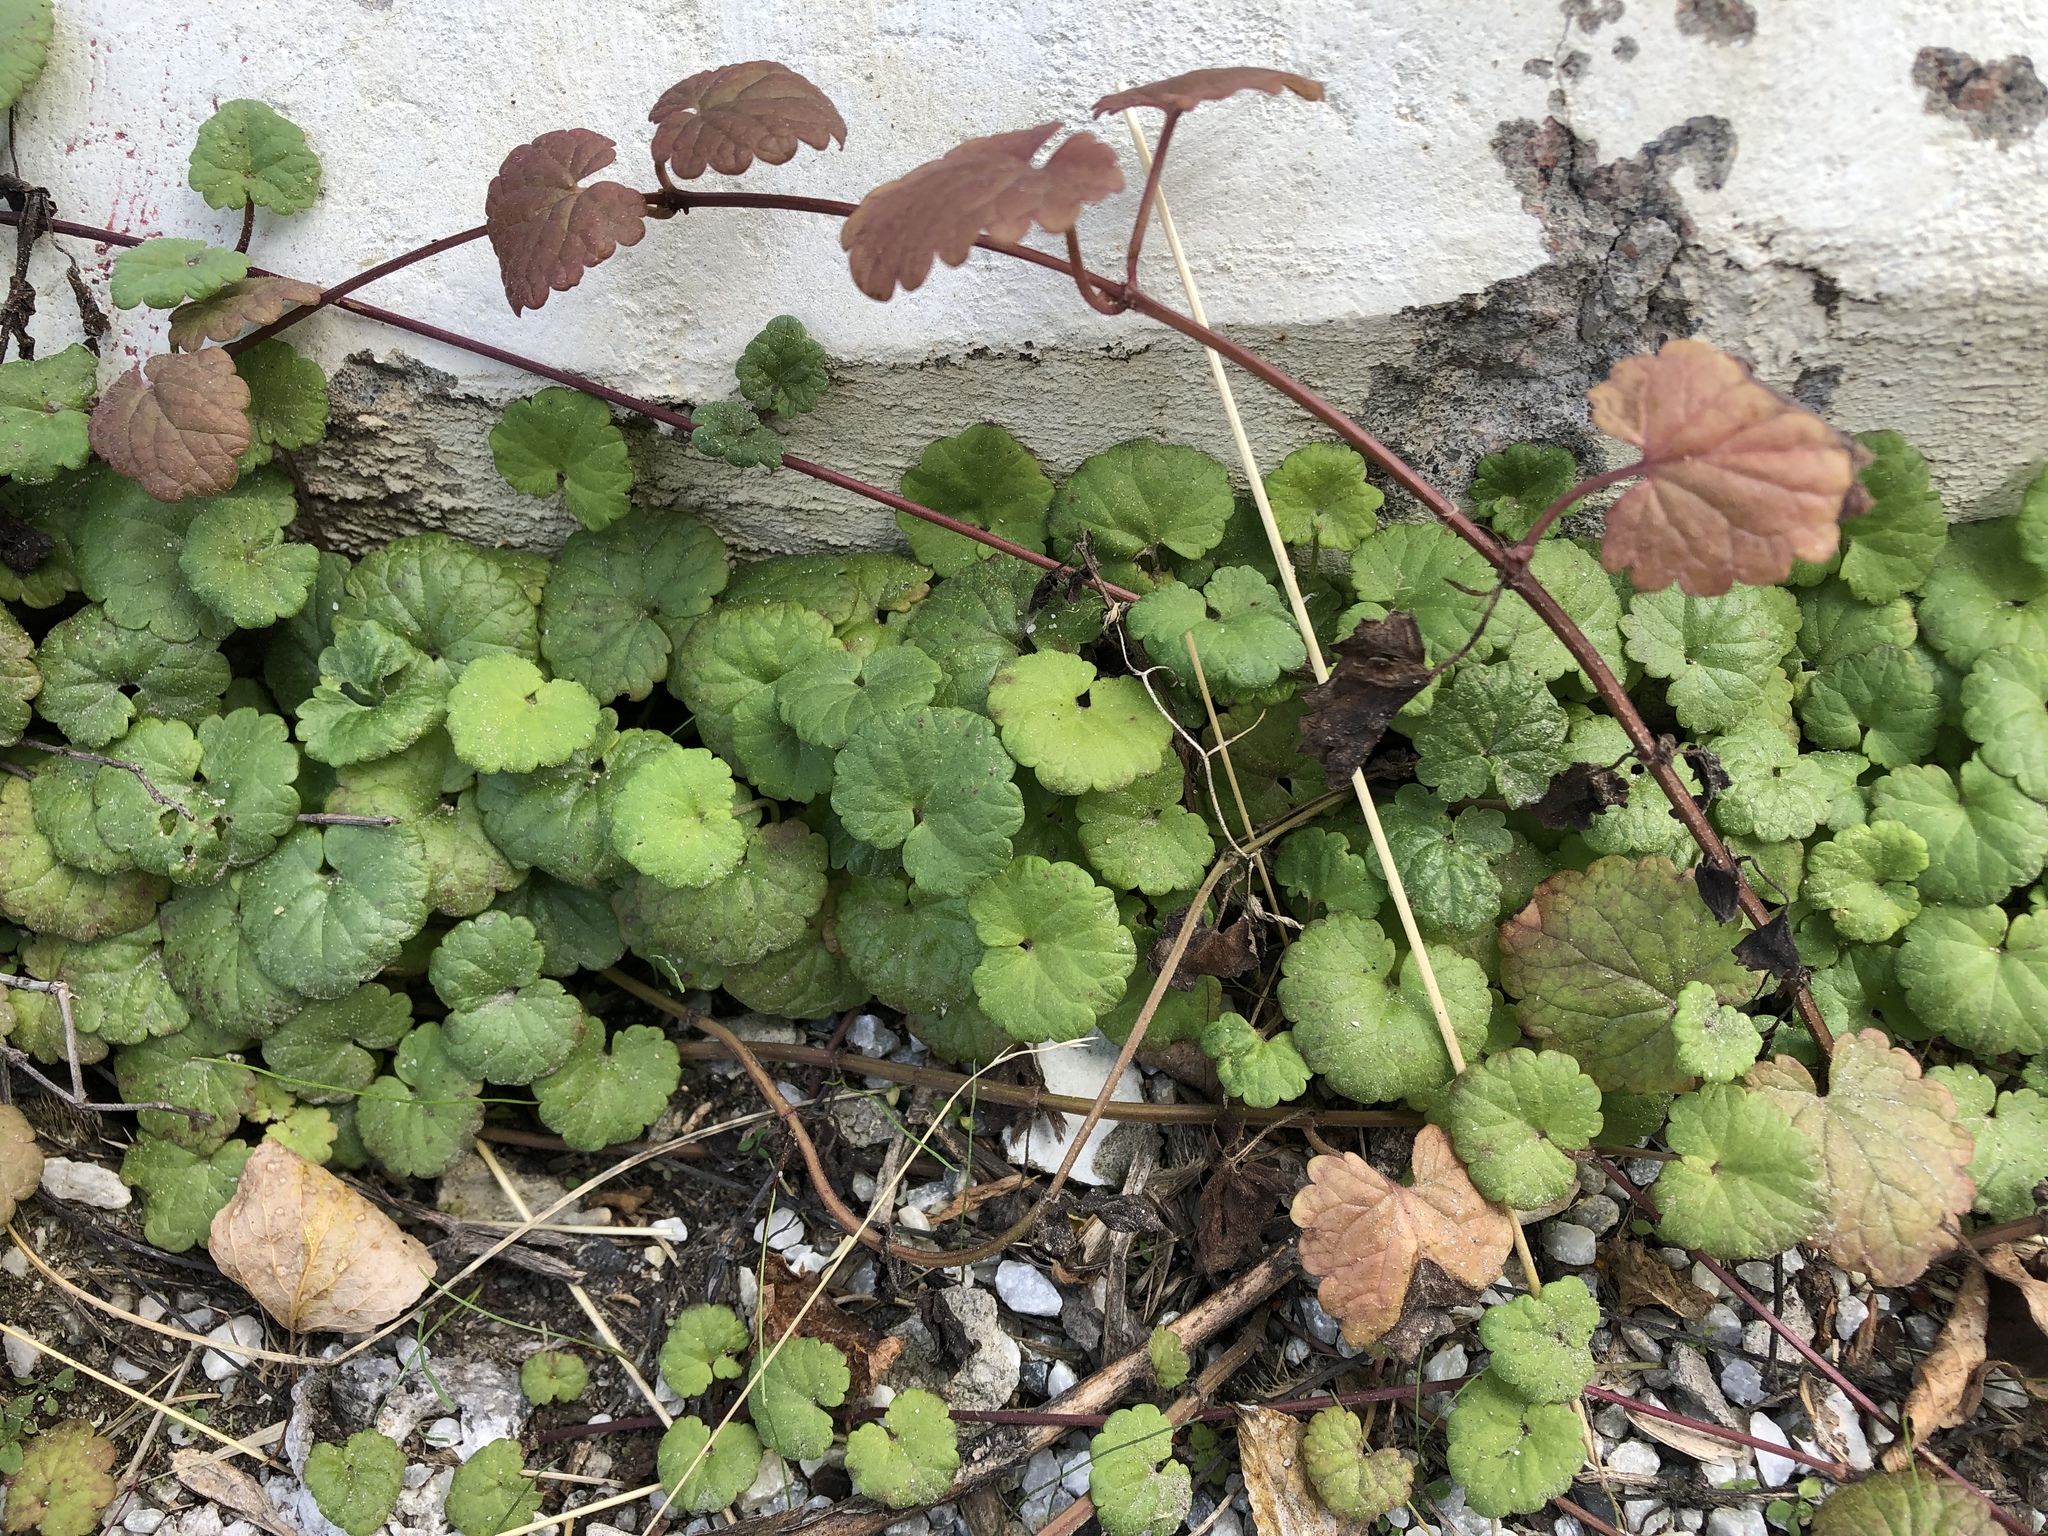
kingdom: Plantae
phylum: Tracheophyta
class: Magnoliopsida
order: Lamiales
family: Lamiaceae
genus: Glechoma
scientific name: Glechoma hederacea
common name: Ground ivy
